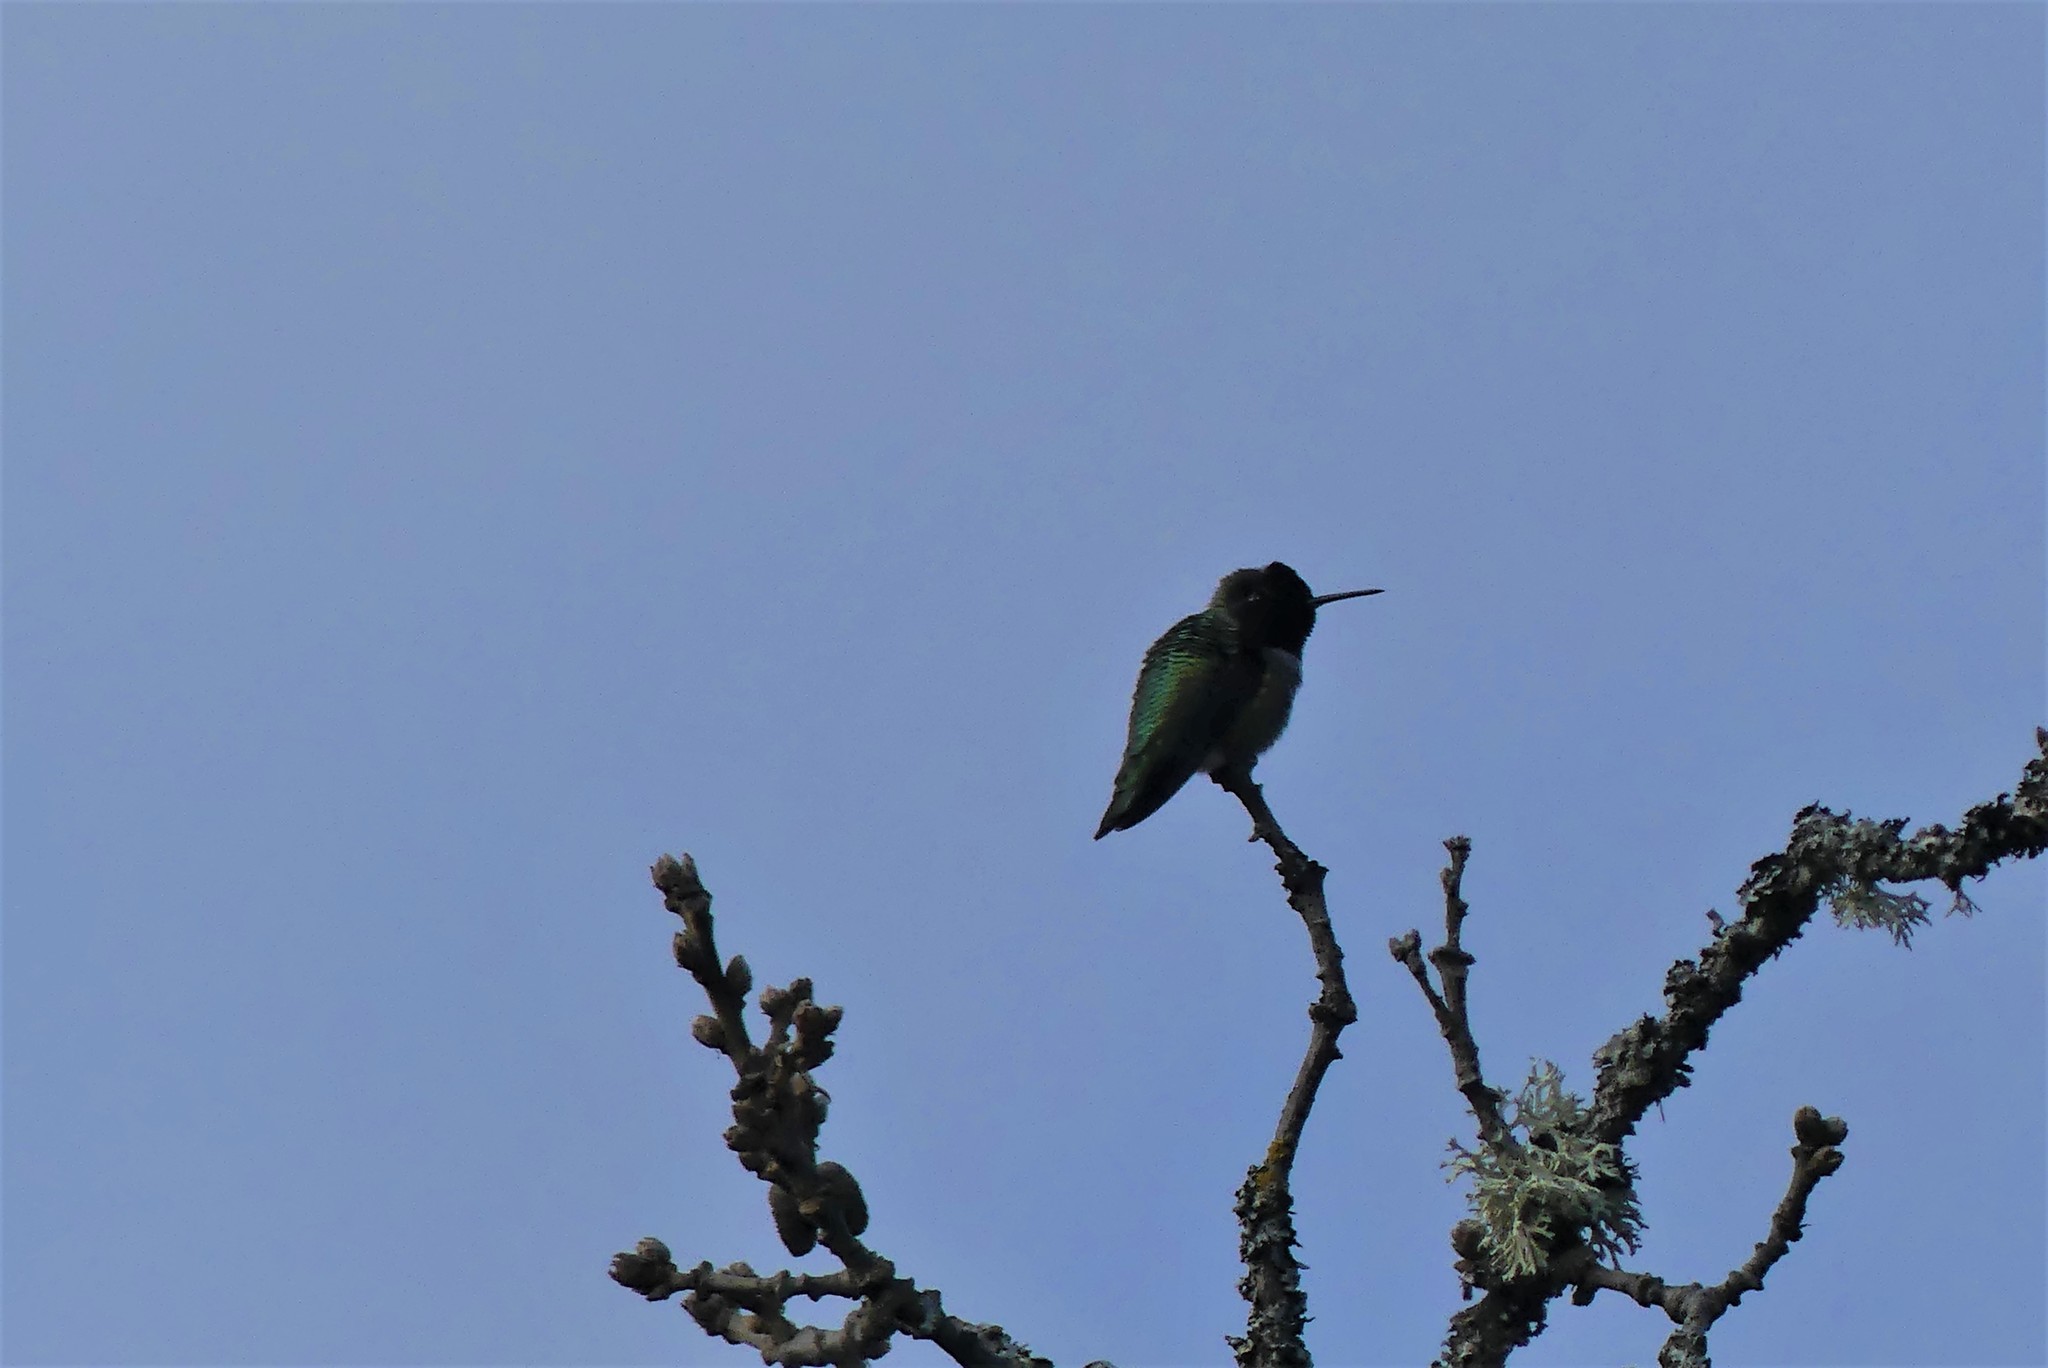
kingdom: Animalia
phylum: Chordata
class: Aves
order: Apodiformes
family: Trochilidae
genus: Calypte
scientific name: Calypte anna
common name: Anna's hummingbird
